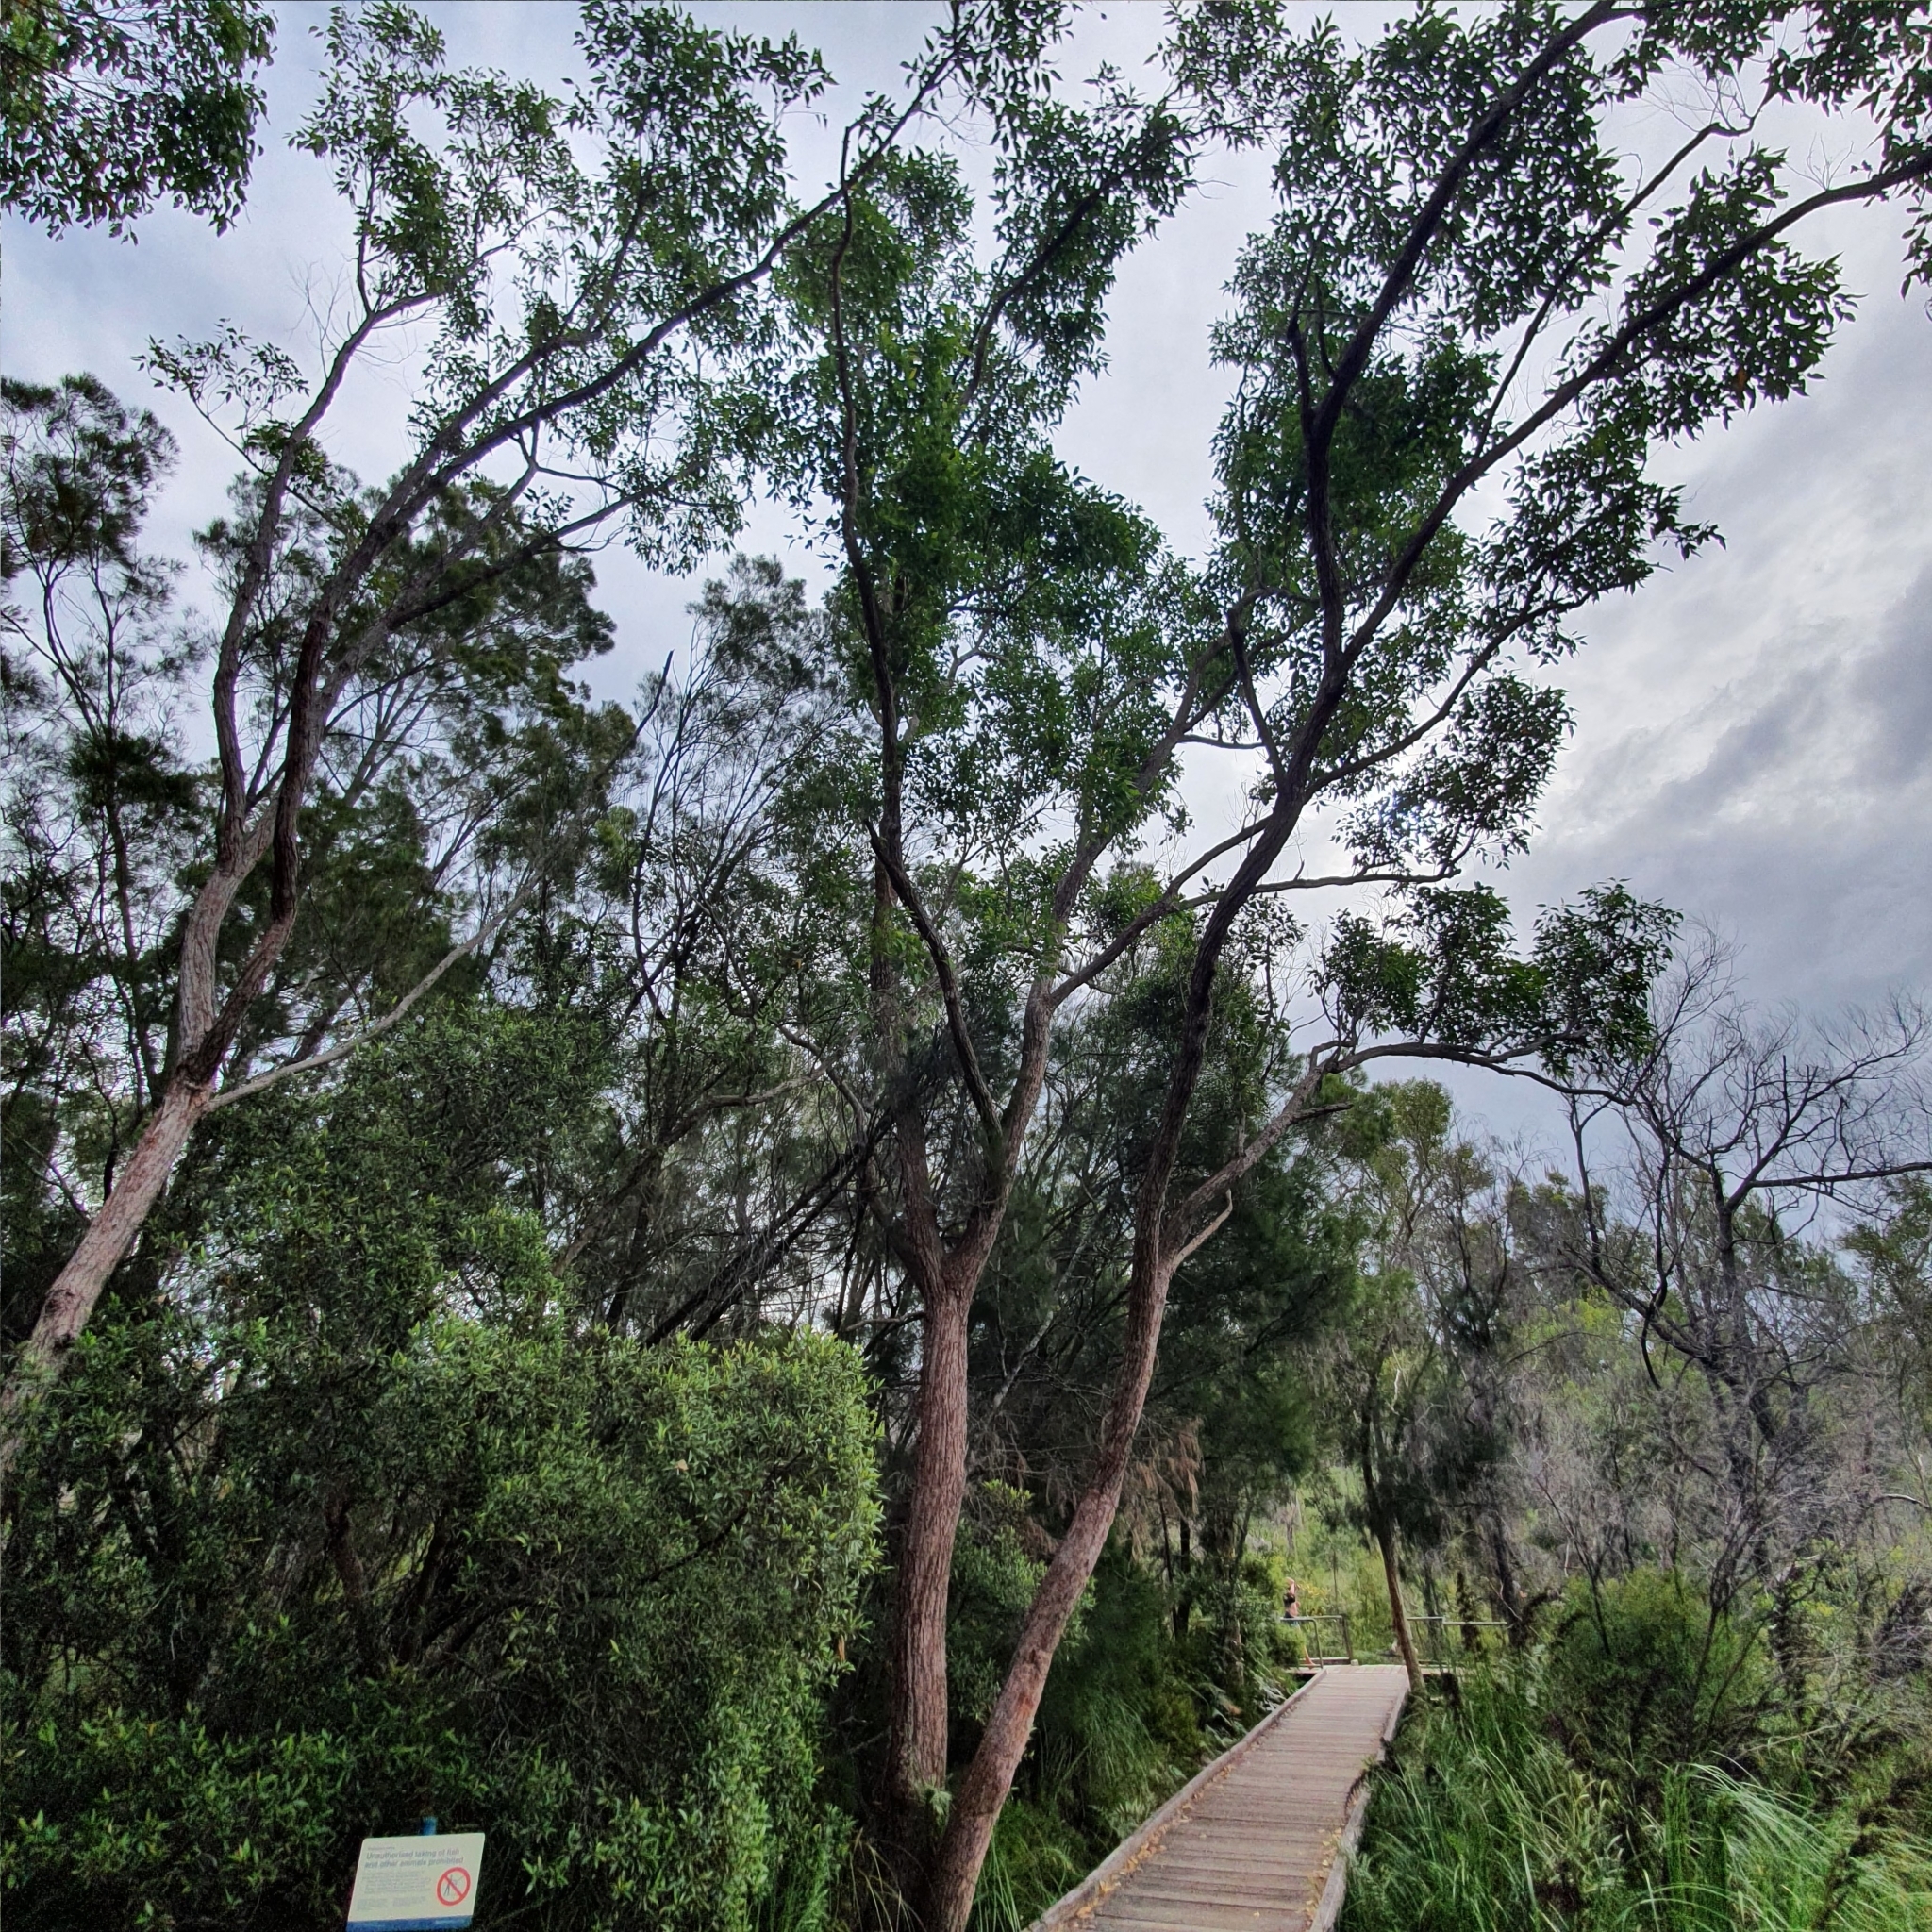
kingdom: Plantae
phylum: Tracheophyta
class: Magnoliopsida
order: Myrtales
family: Myrtaceae
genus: Eucalyptus
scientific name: Eucalyptus robusta
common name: Swampmahogany
